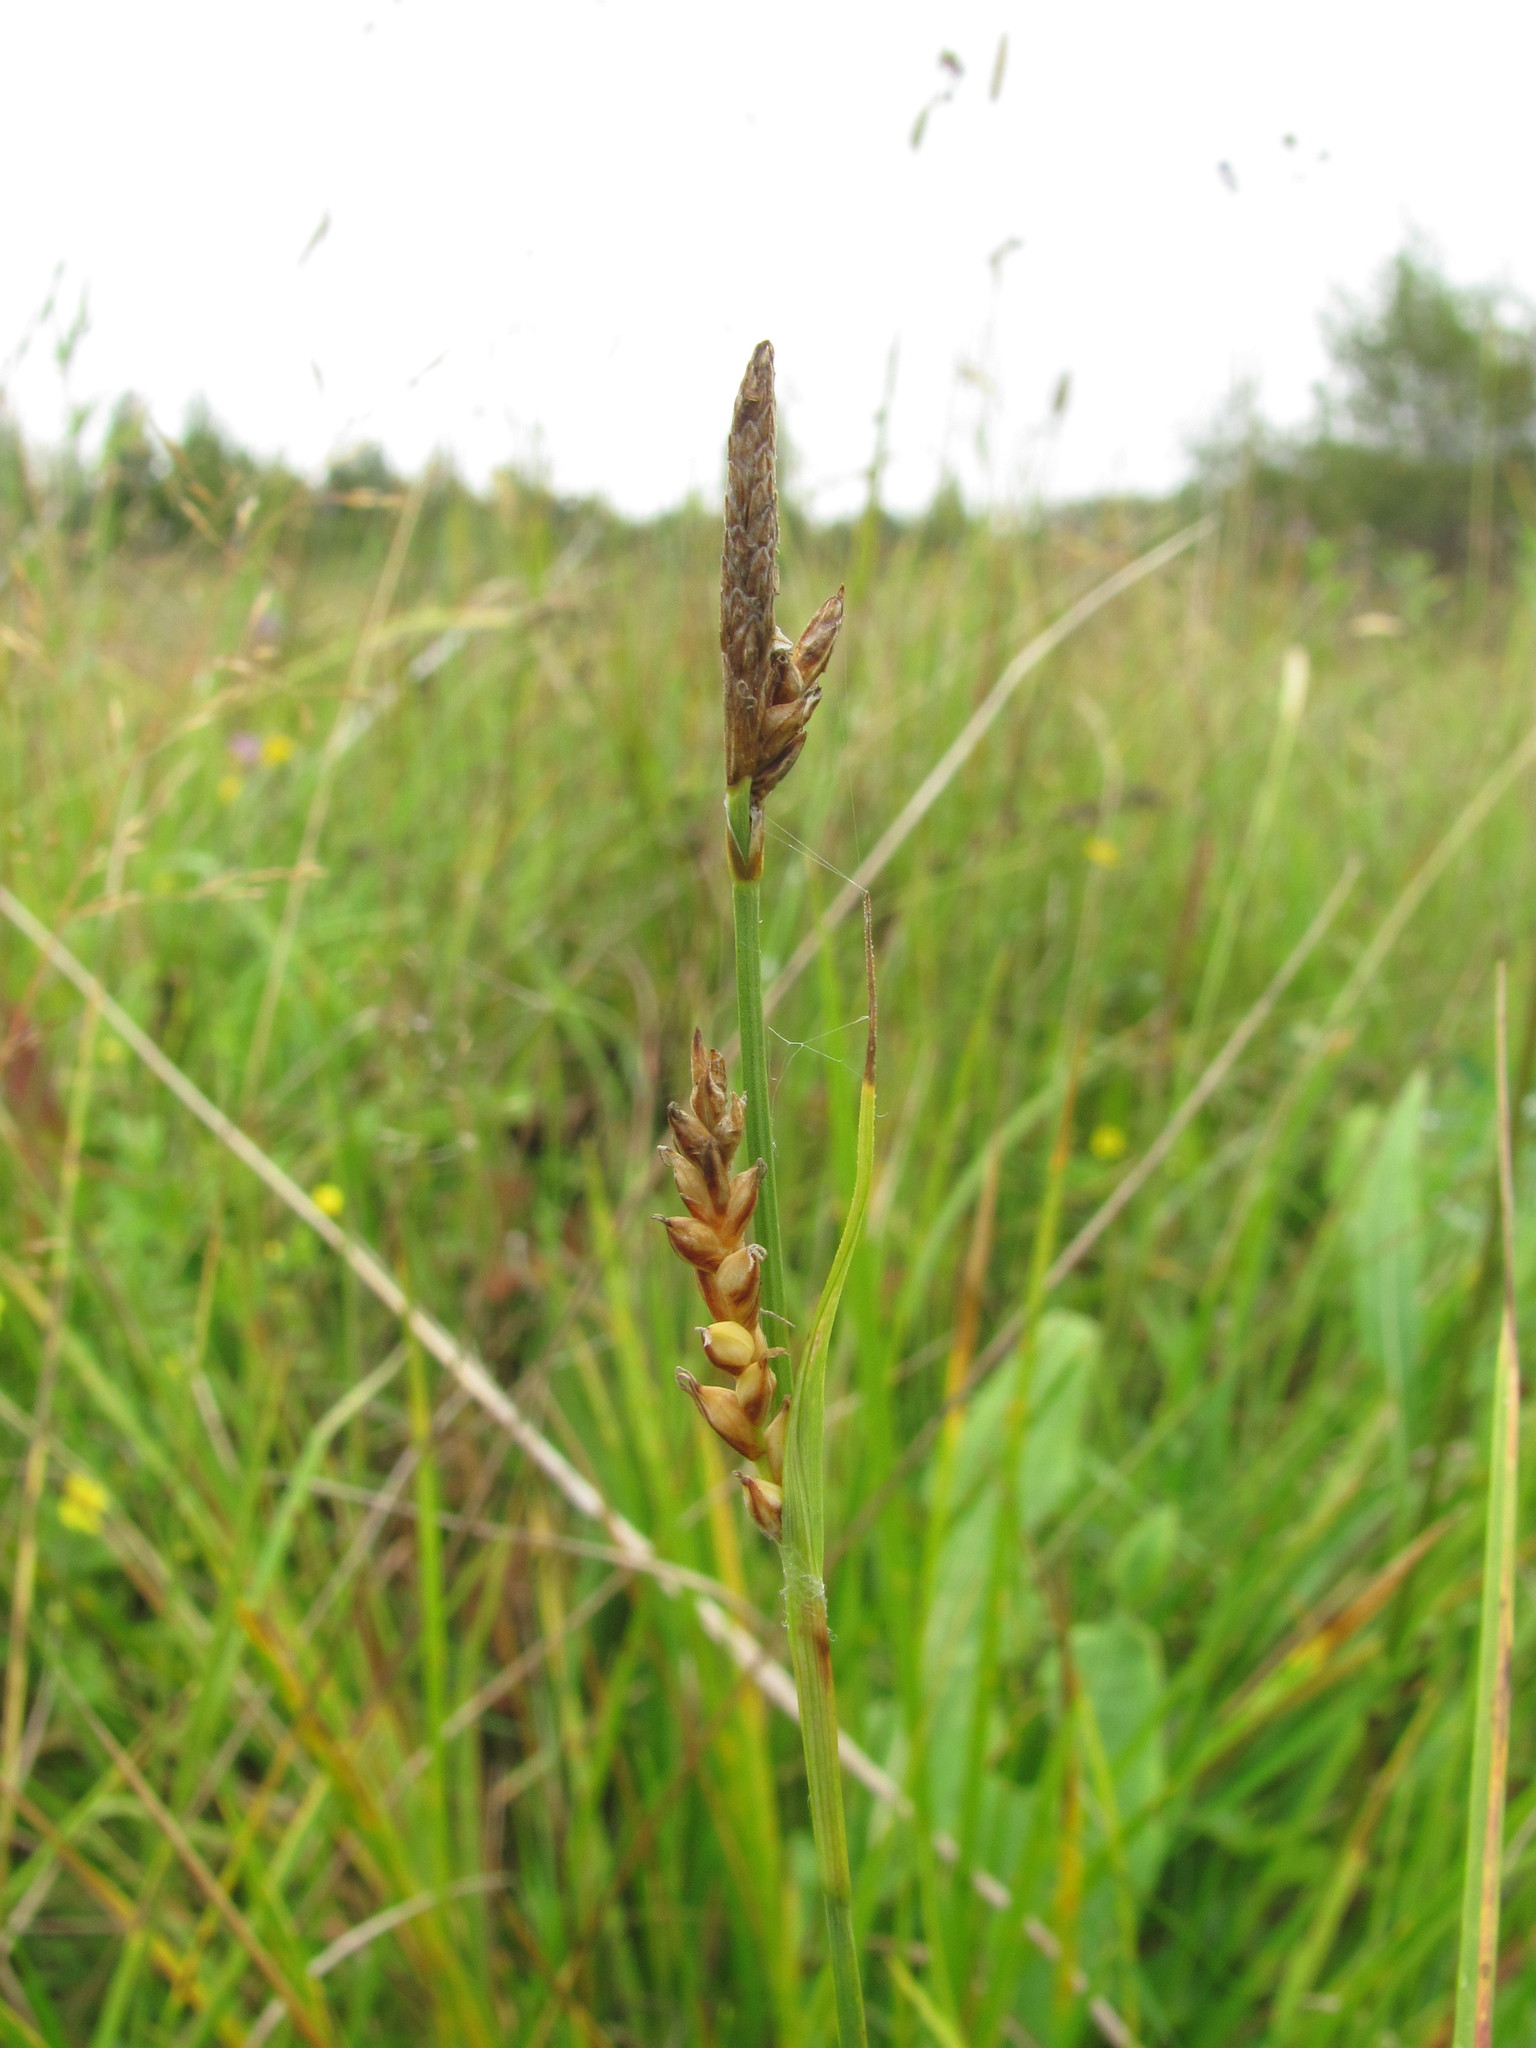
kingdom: Plantae
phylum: Tracheophyta
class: Liliopsida
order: Poales
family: Cyperaceae
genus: Carex
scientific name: Carex panicea
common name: Carnation sedge
